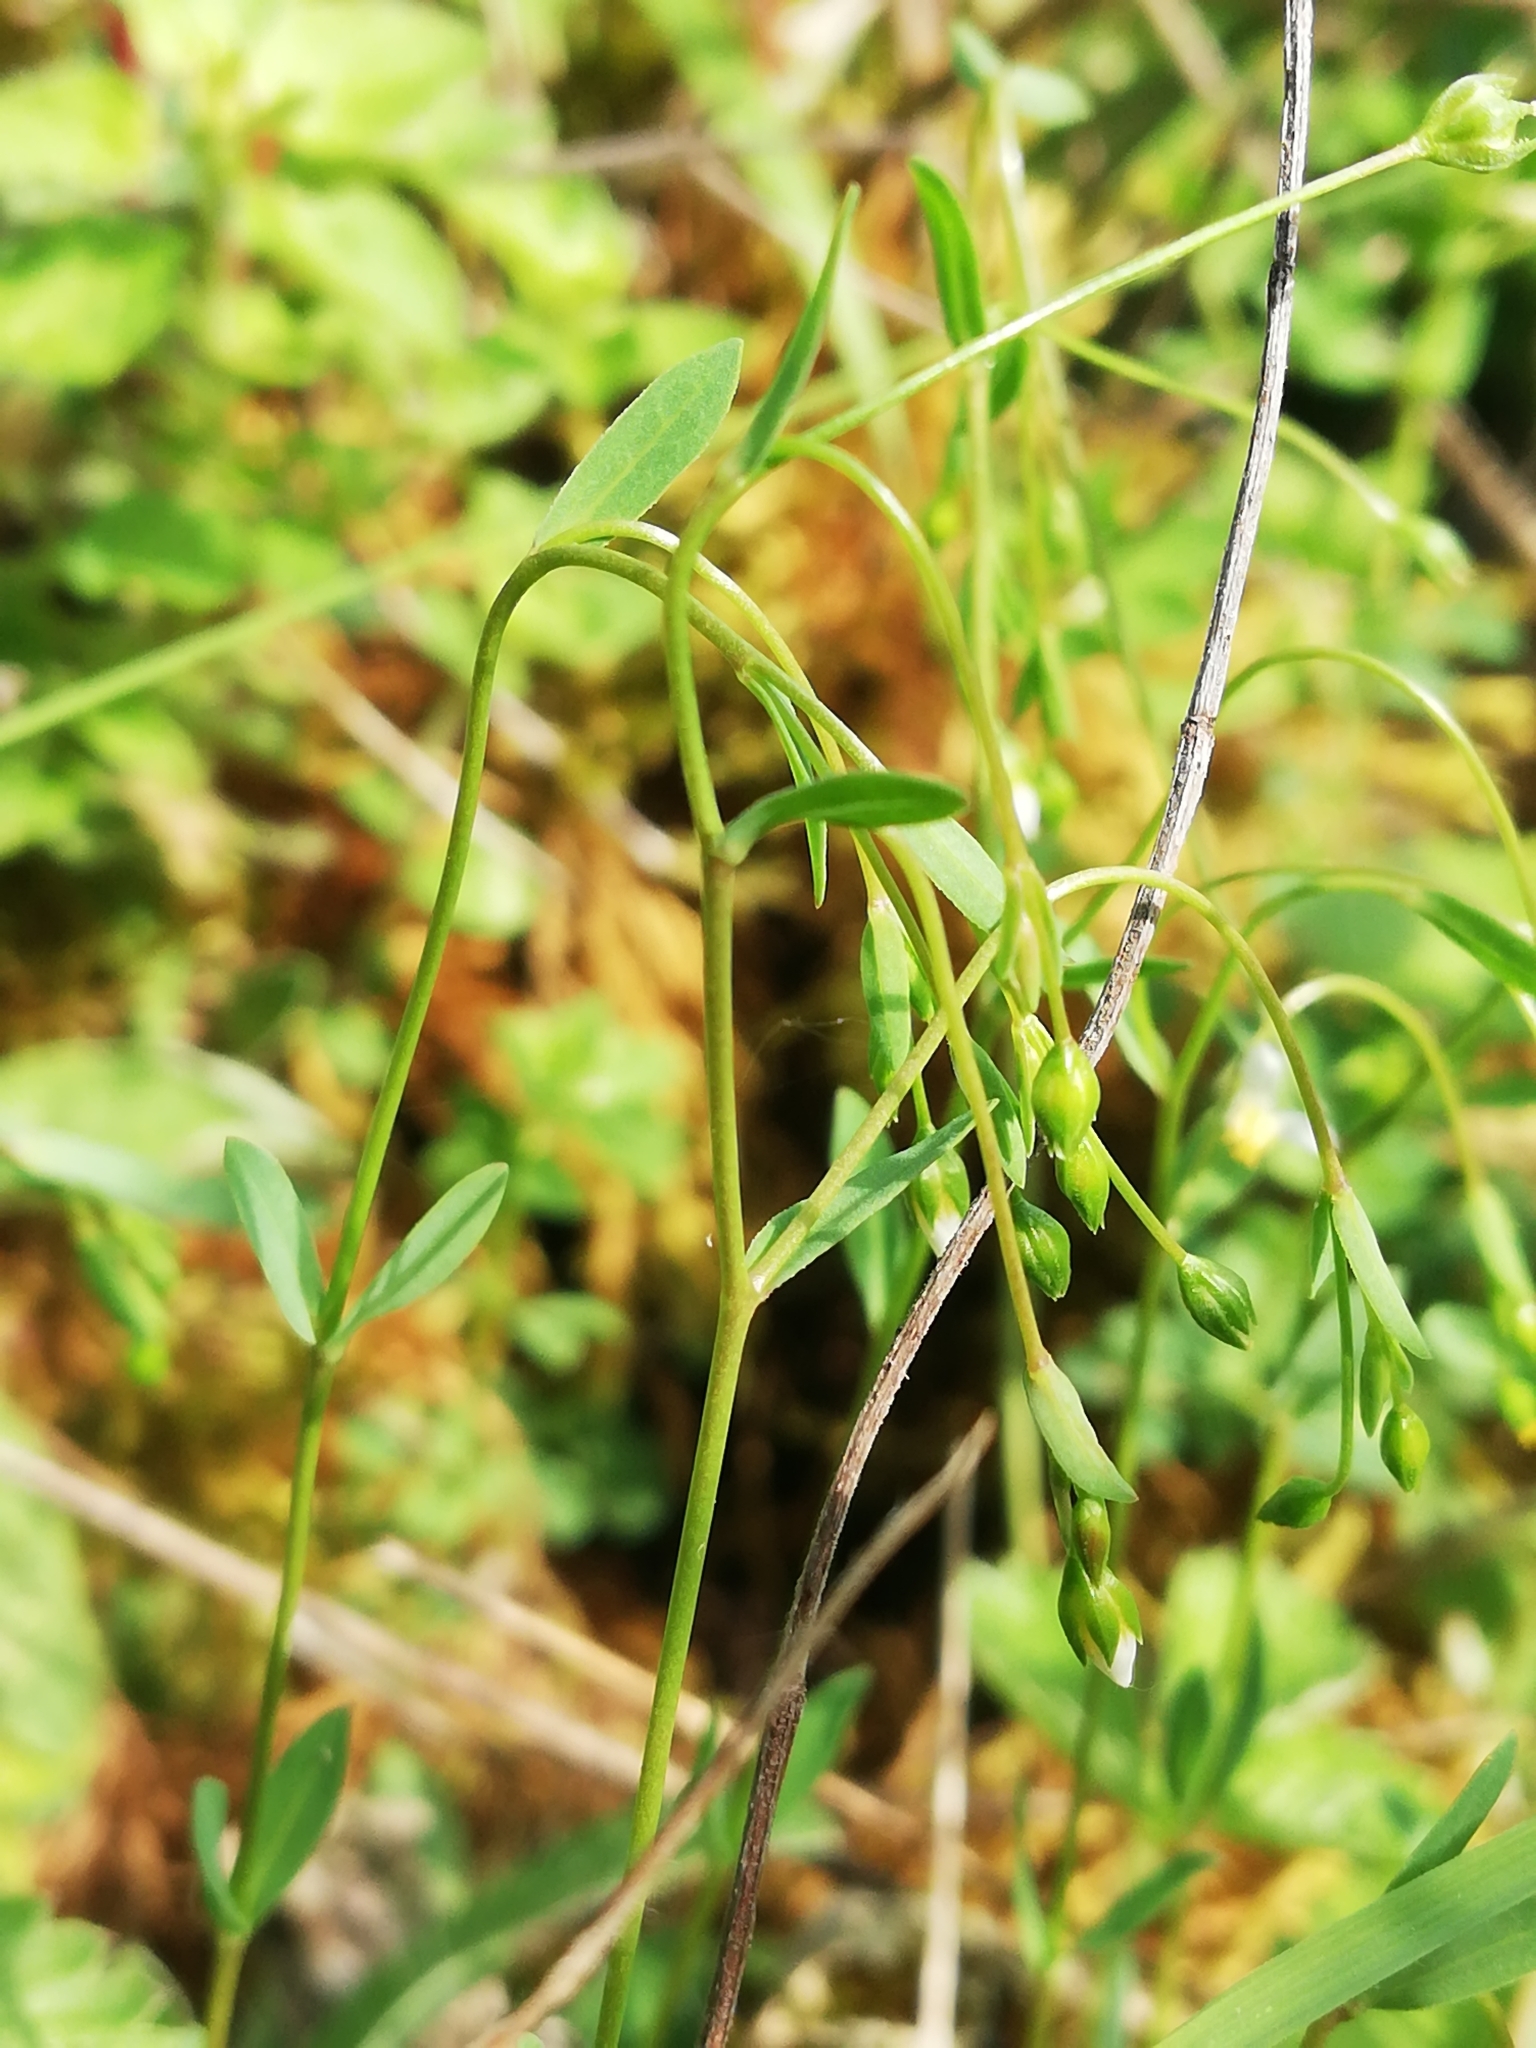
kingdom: Plantae
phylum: Tracheophyta
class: Magnoliopsida
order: Malpighiales
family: Linaceae
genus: Linum
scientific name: Linum catharticum
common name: Fairy flax
